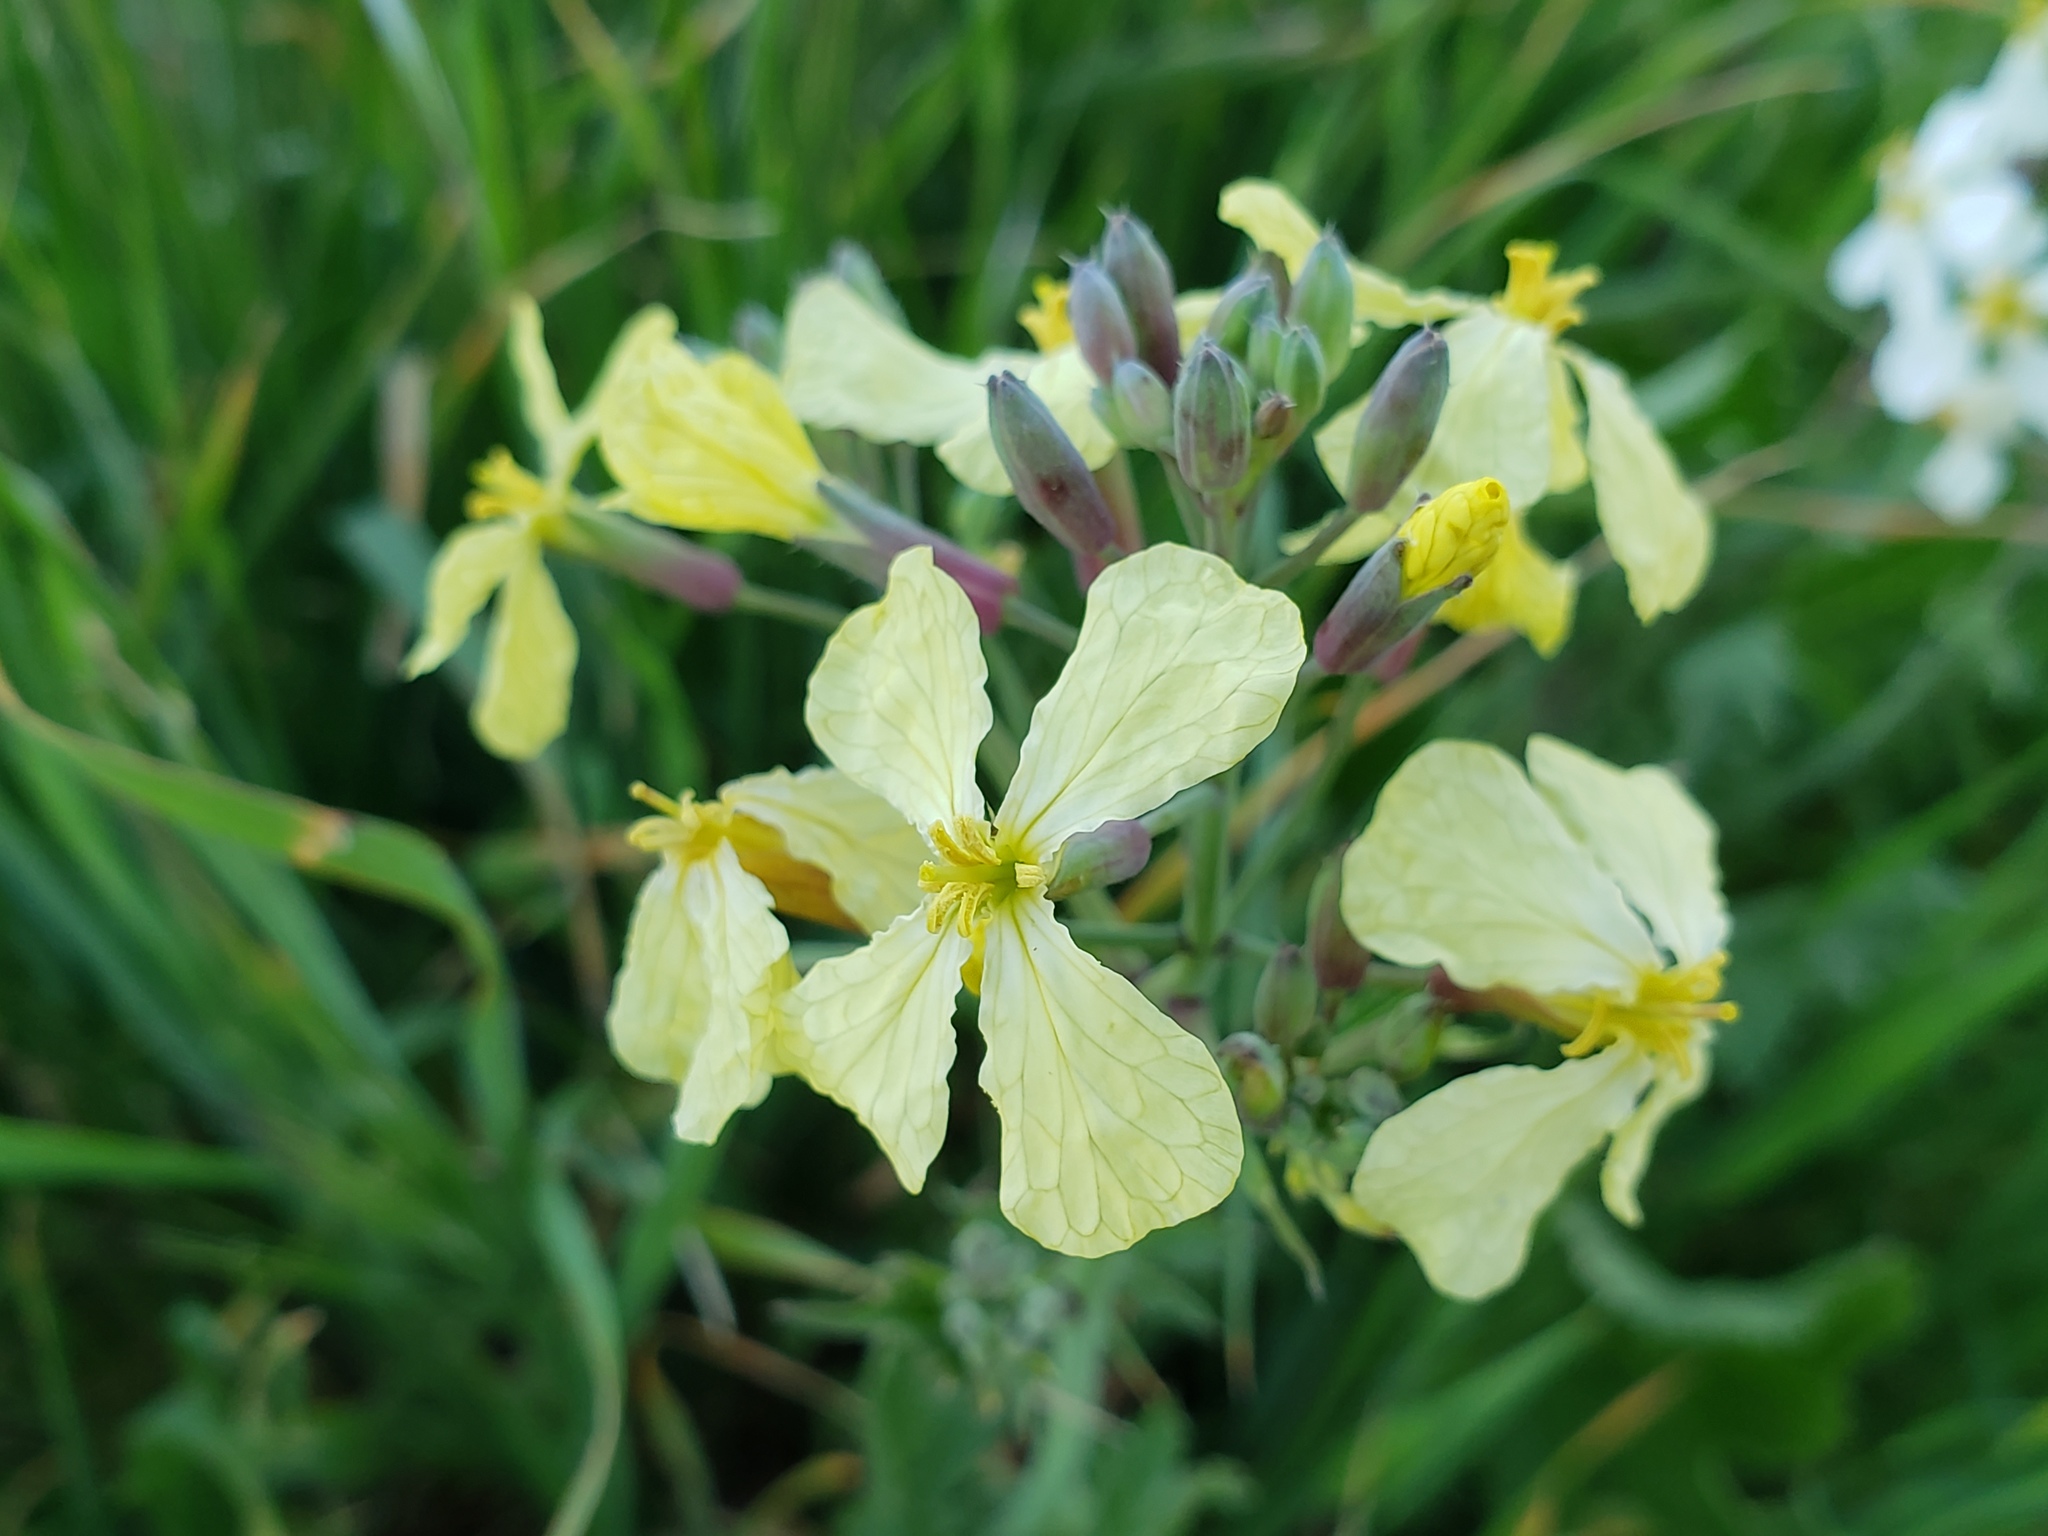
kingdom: Plantae
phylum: Tracheophyta
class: Magnoliopsida
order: Brassicales
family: Brassicaceae
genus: Raphanus
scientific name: Raphanus raphanistrum
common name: Wild radish
